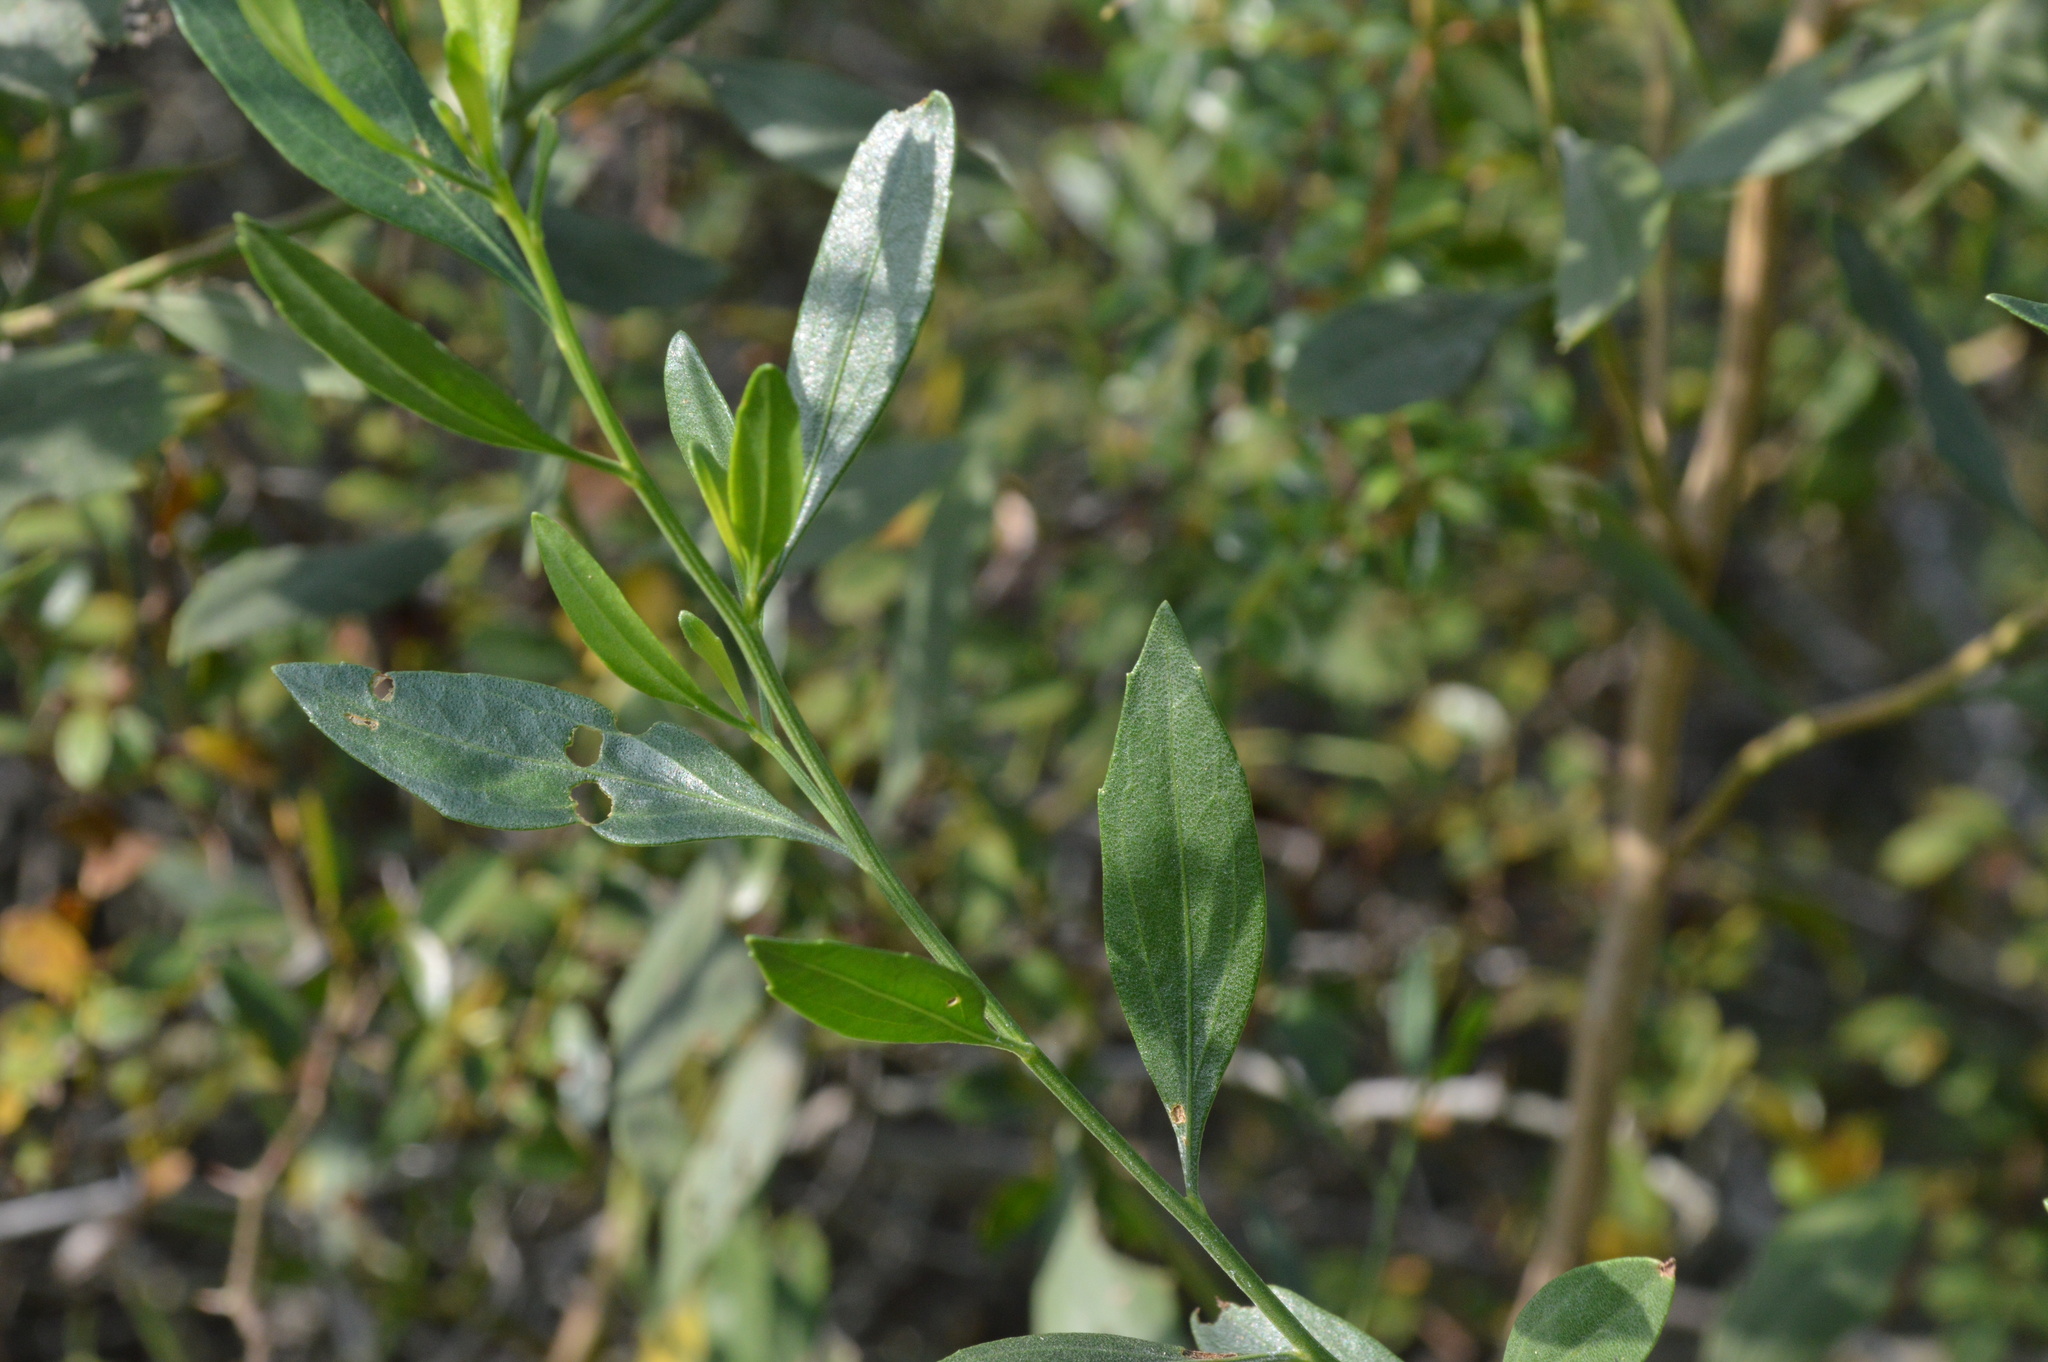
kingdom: Plantae
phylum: Tracheophyta
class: Magnoliopsida
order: Asterales
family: Asteraceae
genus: Baccharis
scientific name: Baccharis halimifolia
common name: Eastern baccharis
